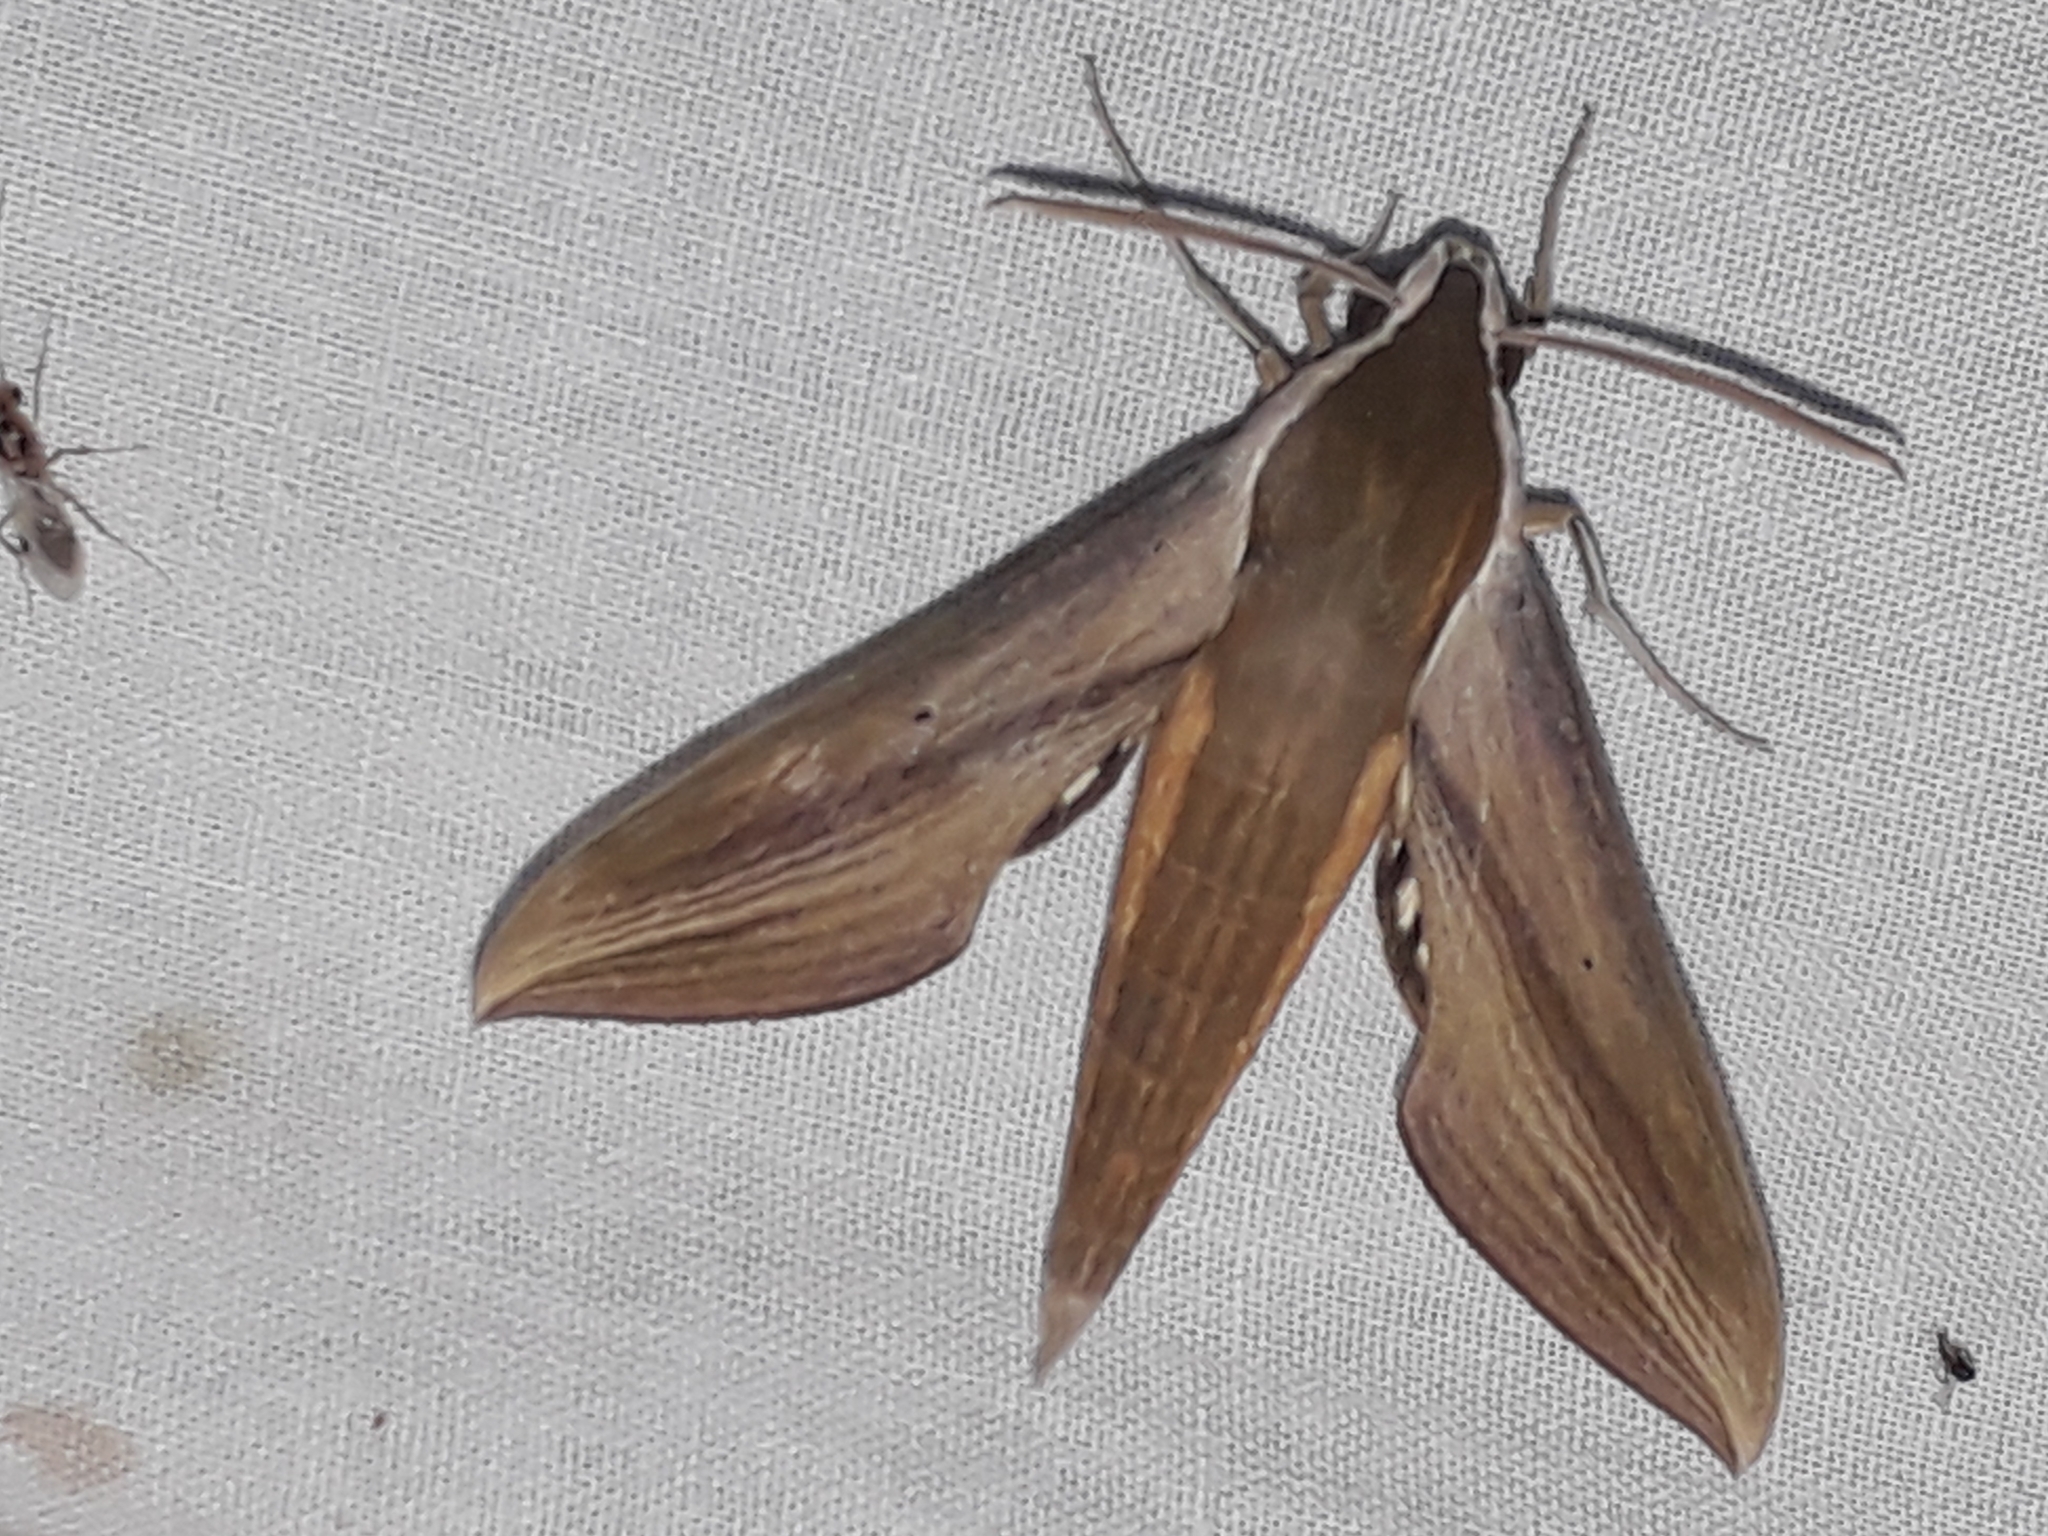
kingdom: Animalia
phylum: Arthropoda
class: Insecta
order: Lepidoptera
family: Sphingidae
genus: Xylophanes
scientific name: Xylophanes tersa
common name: Tersa sphinx
